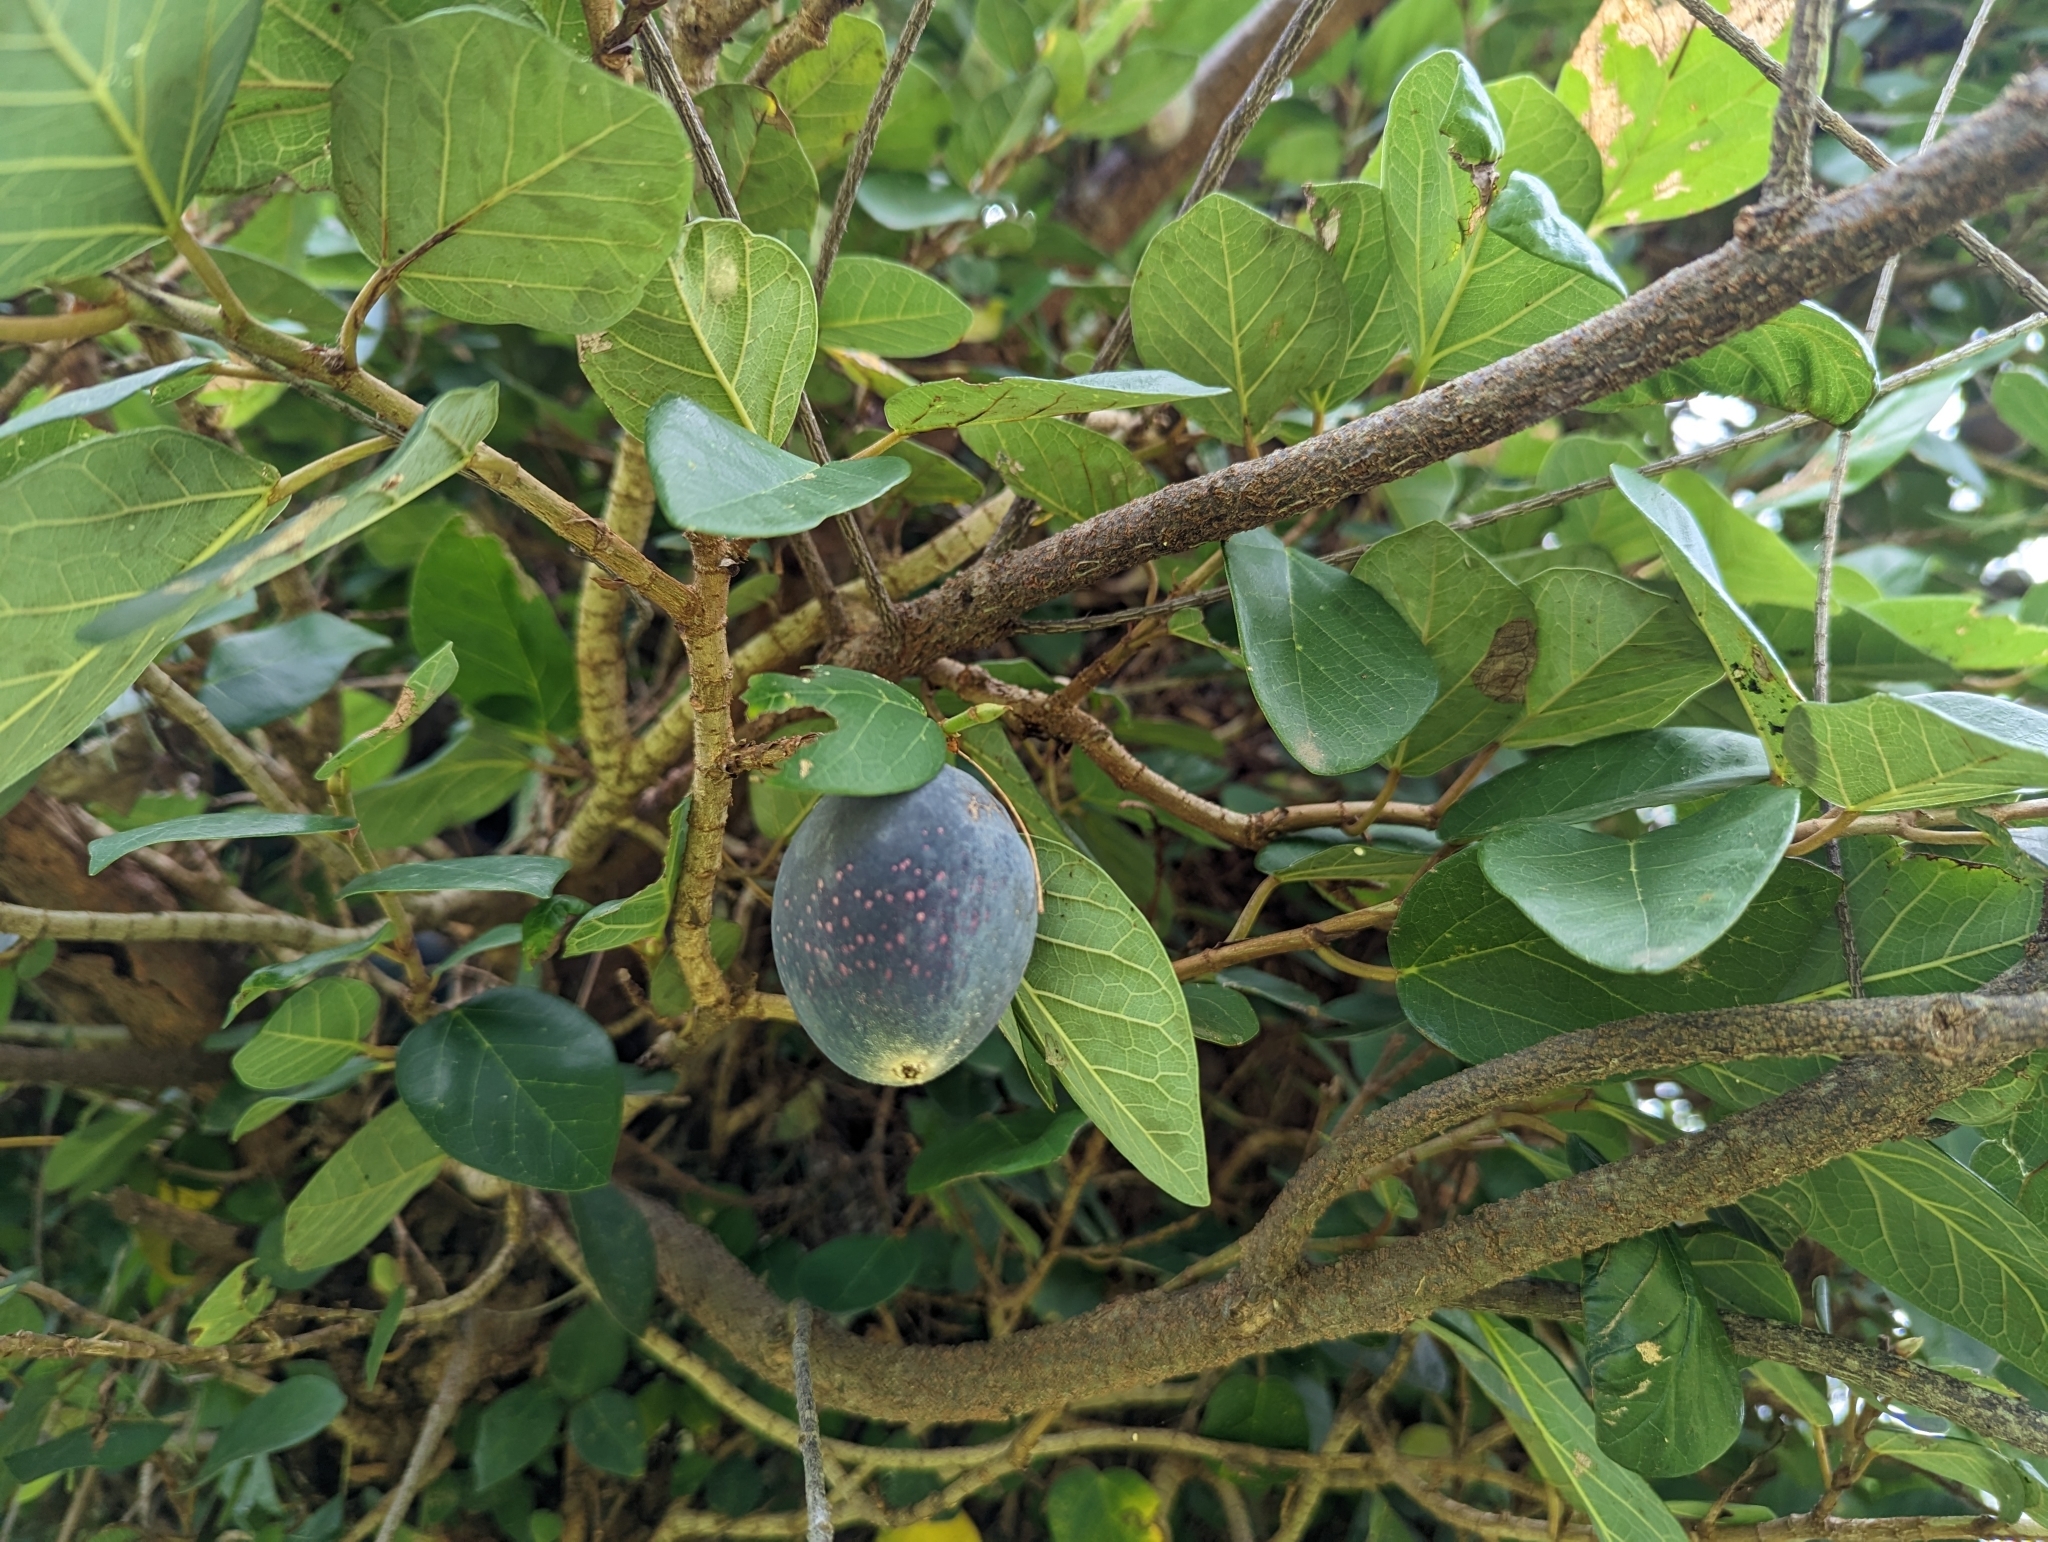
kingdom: Plantae
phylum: Tracheophyta
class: Magnoliopsida
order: Rosales
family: Moraceae
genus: Ficus
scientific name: Ficus pumila
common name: Climbingfig
